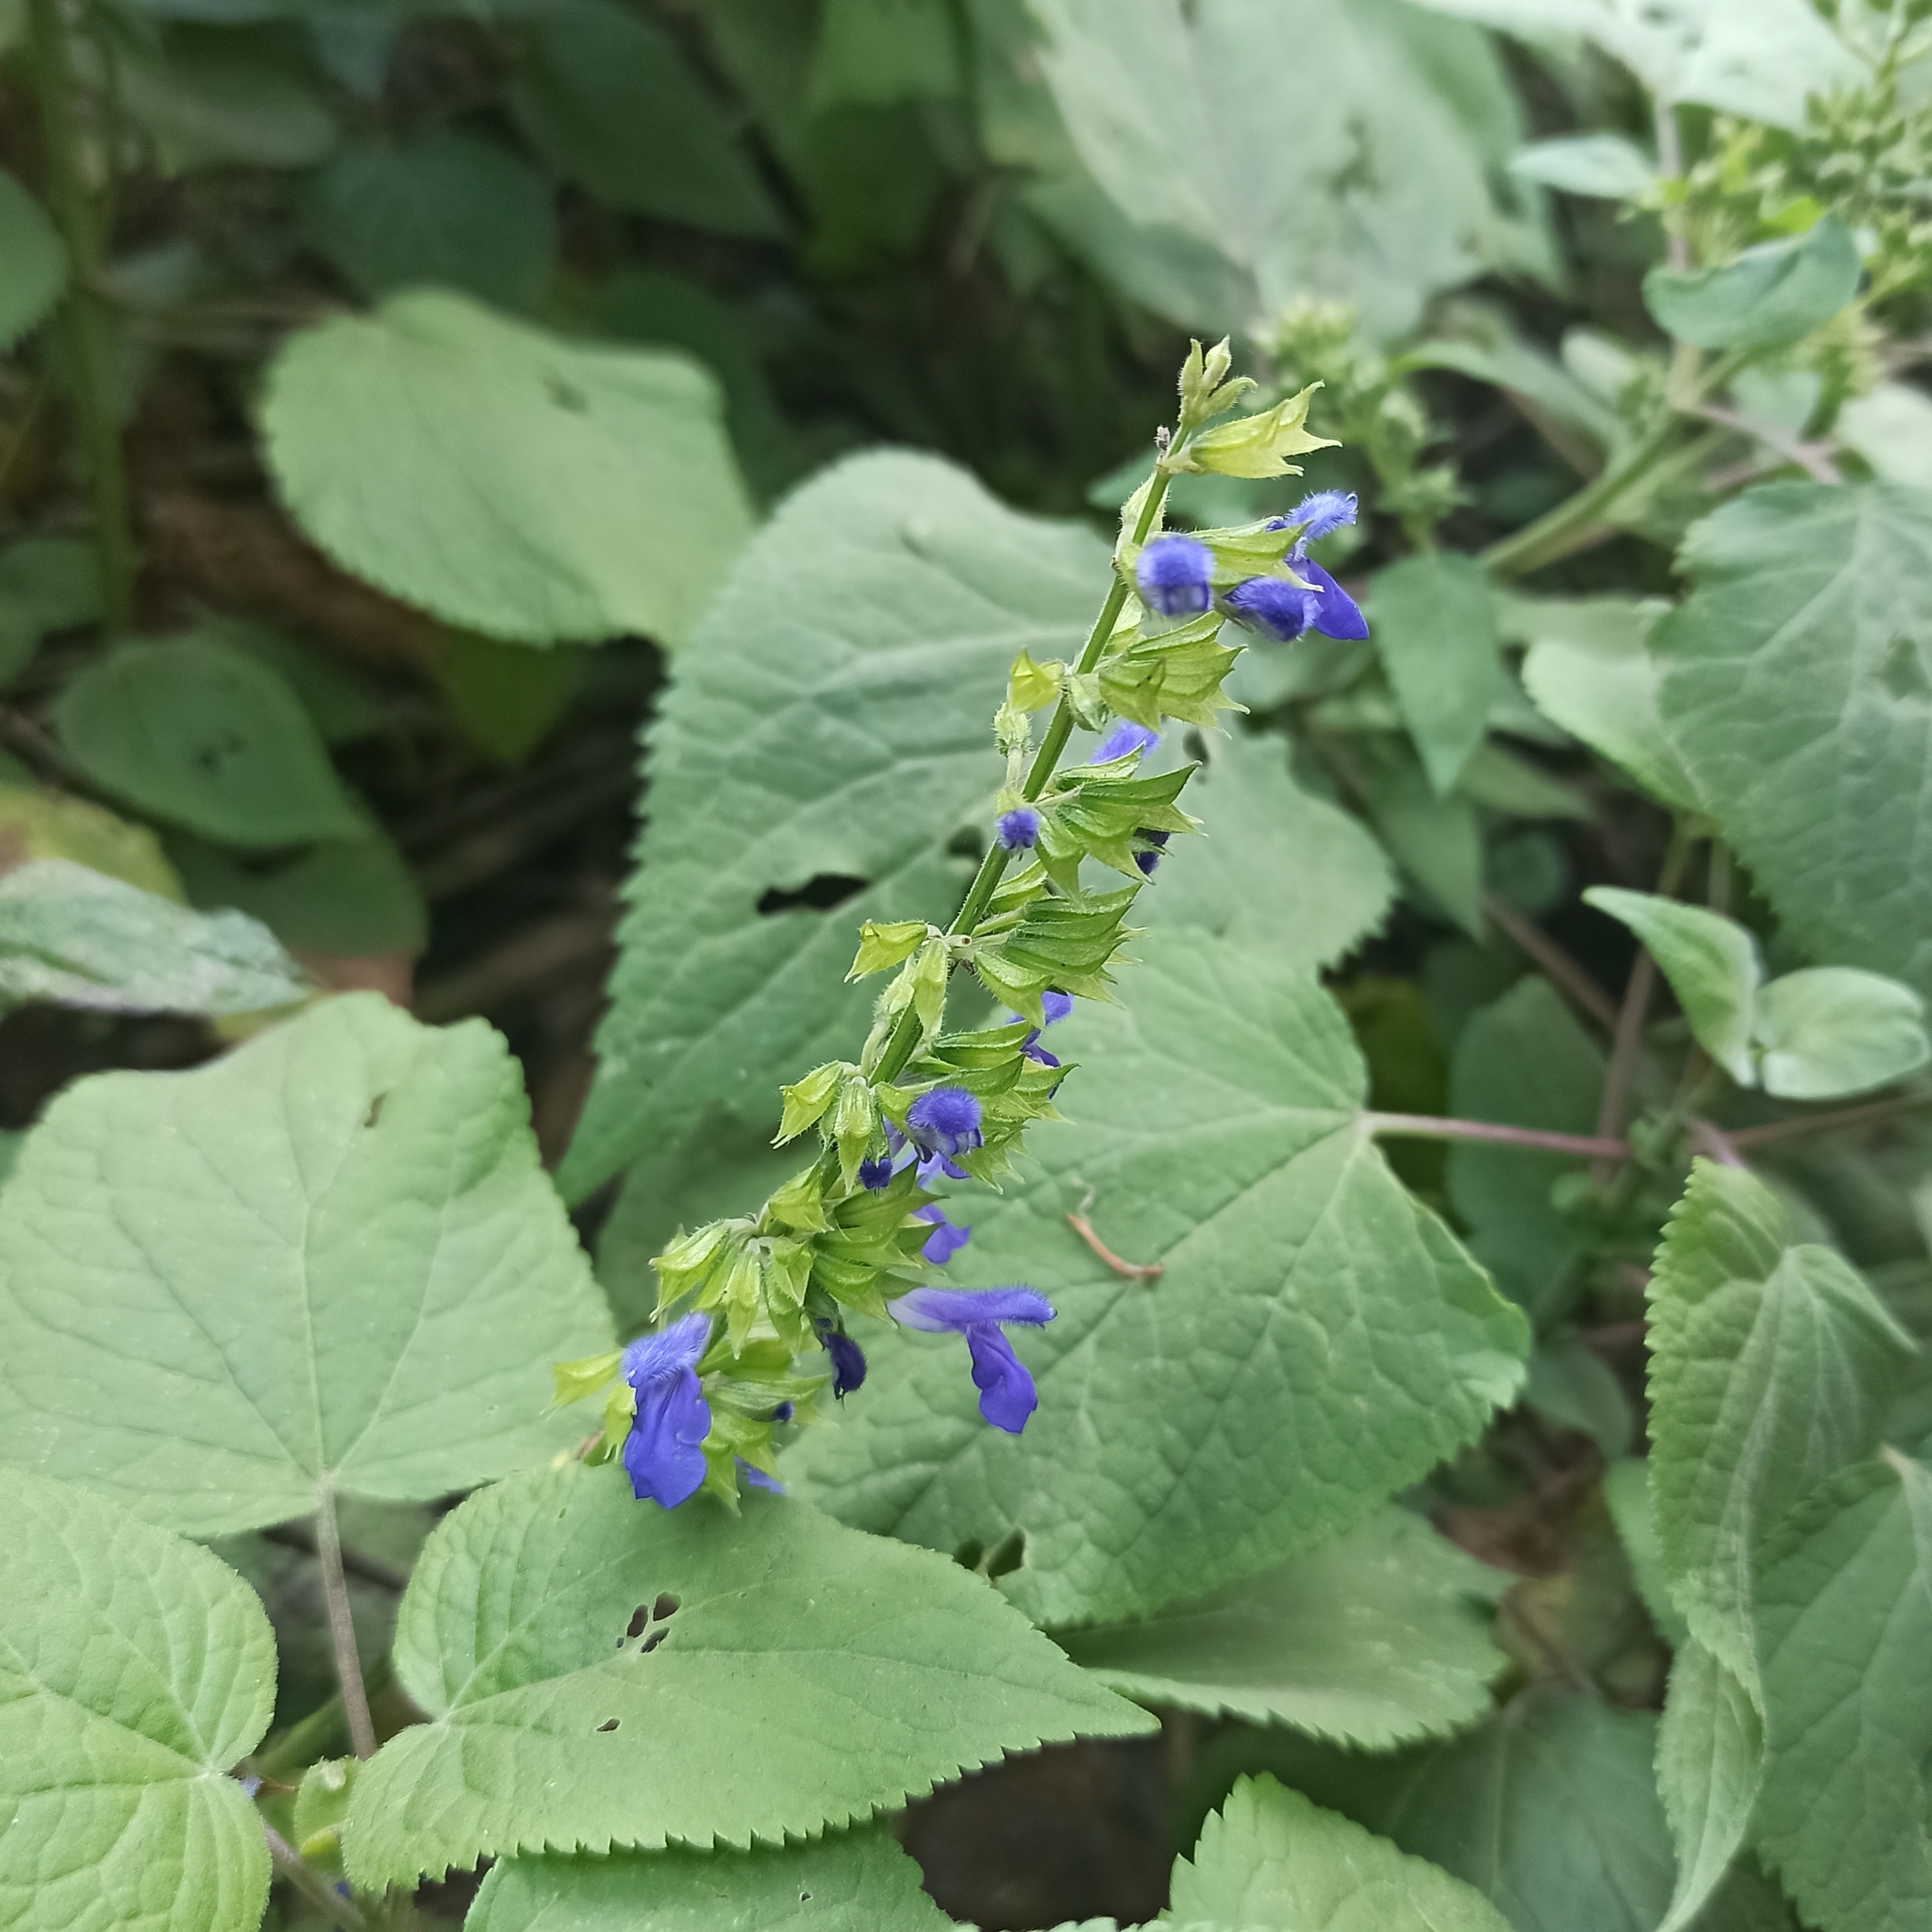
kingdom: Plantae
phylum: Tracheophyta
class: Magnoliopsida
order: Lamiales
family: Lamiaceae
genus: Salvia
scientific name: Salvia longispicata
